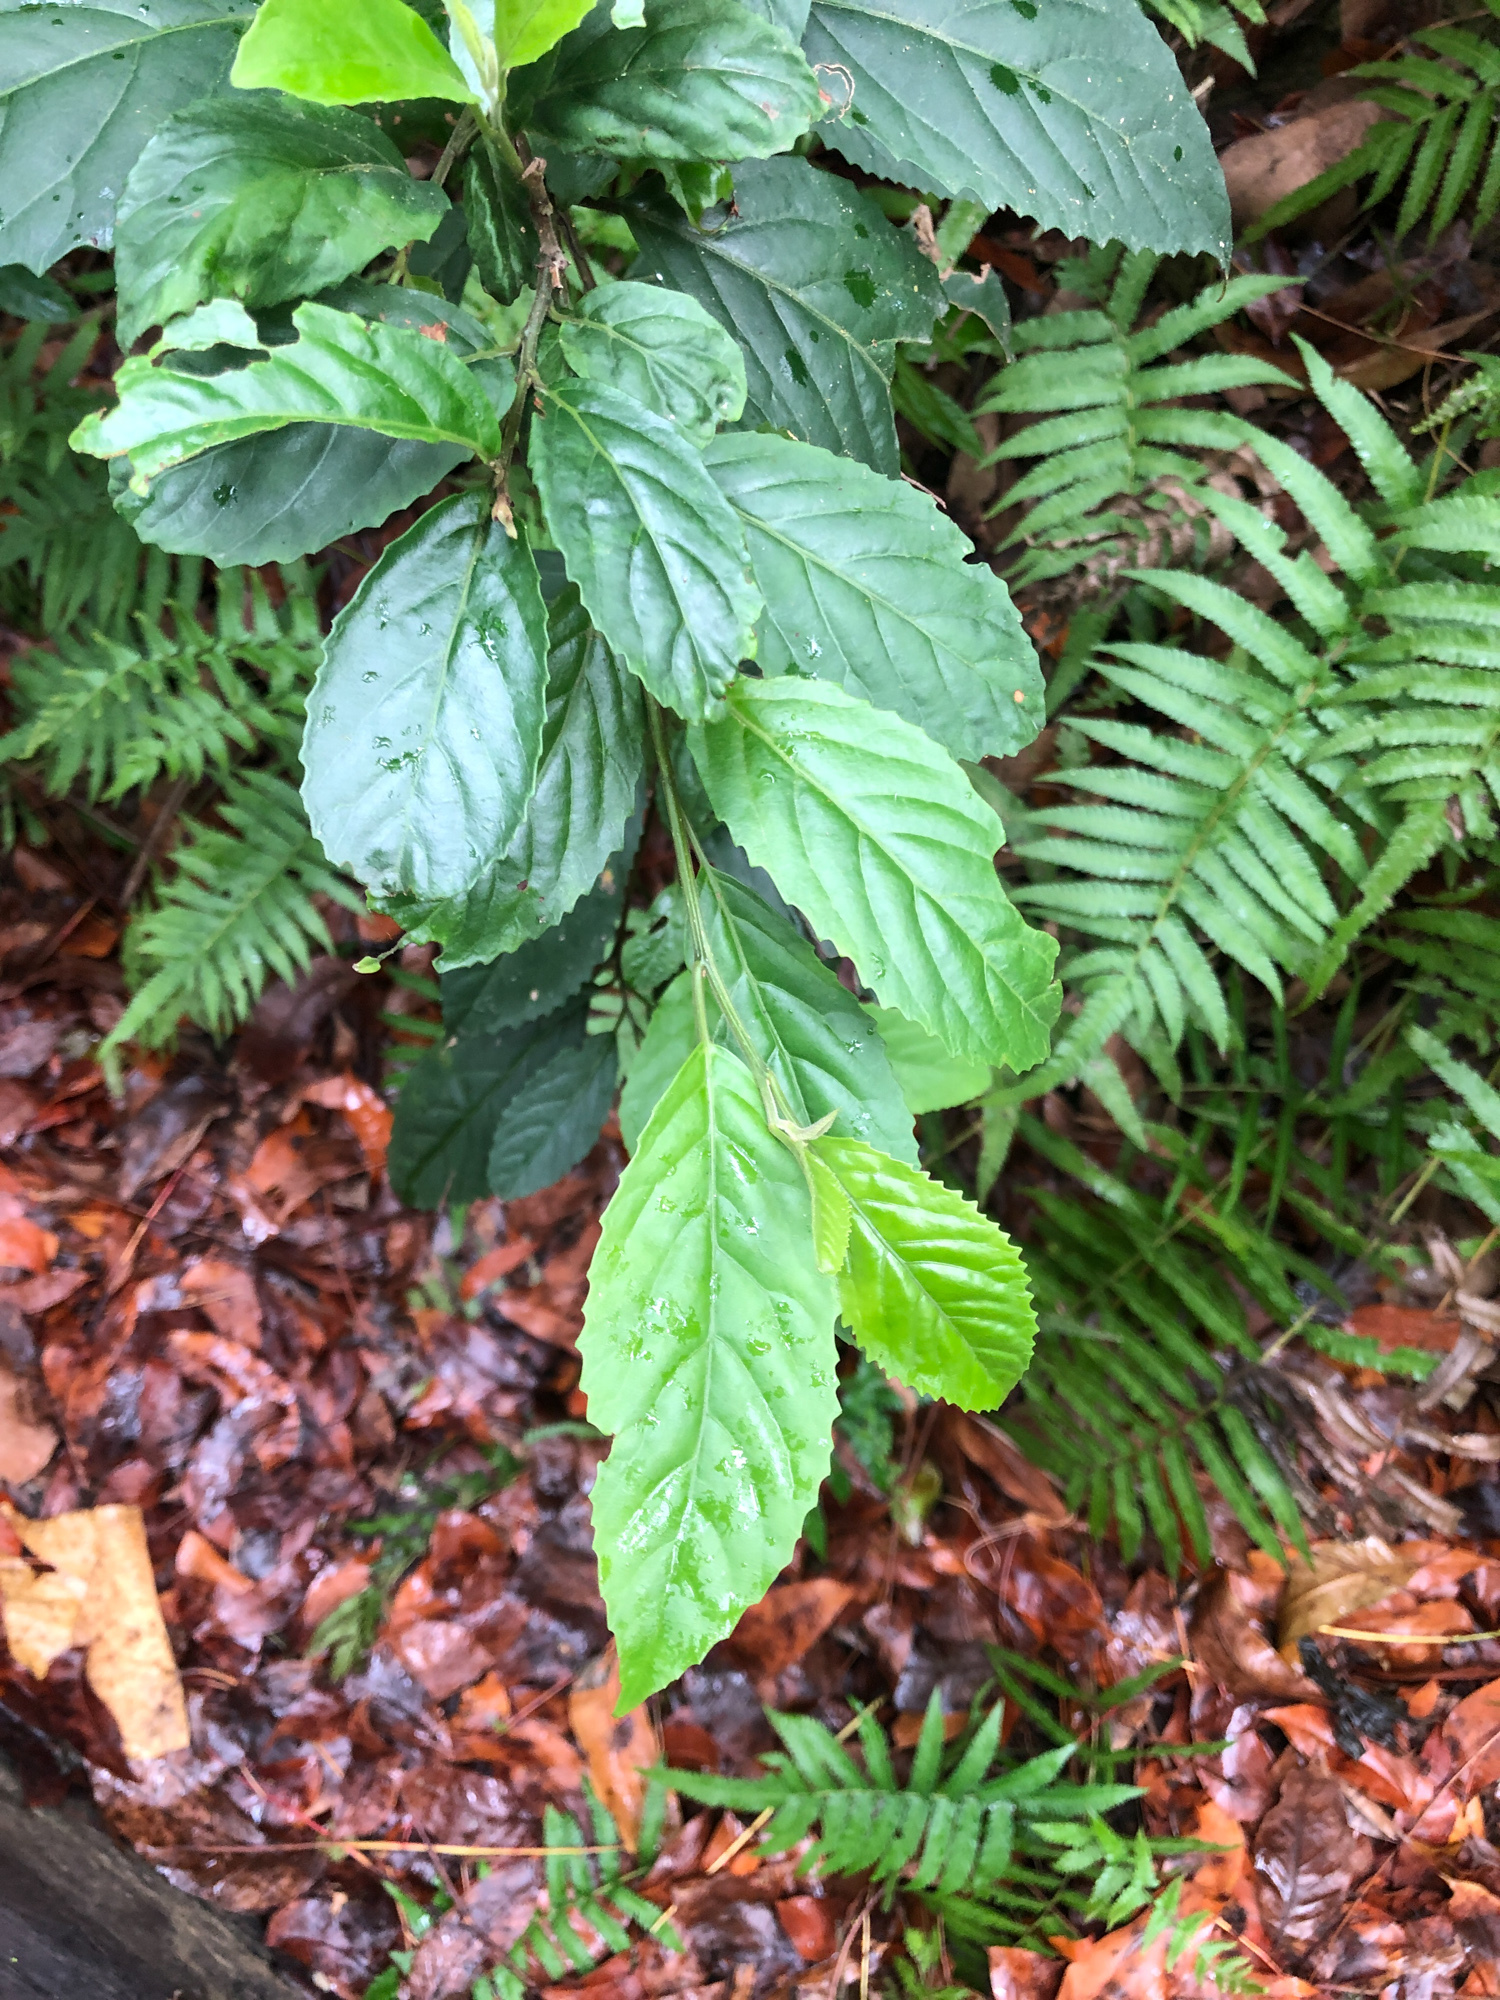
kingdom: Plantae
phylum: Tracheophyta
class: Magnoliopsida
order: Ericales
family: Primulaceae
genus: Maesa
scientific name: Maesa perlaria
